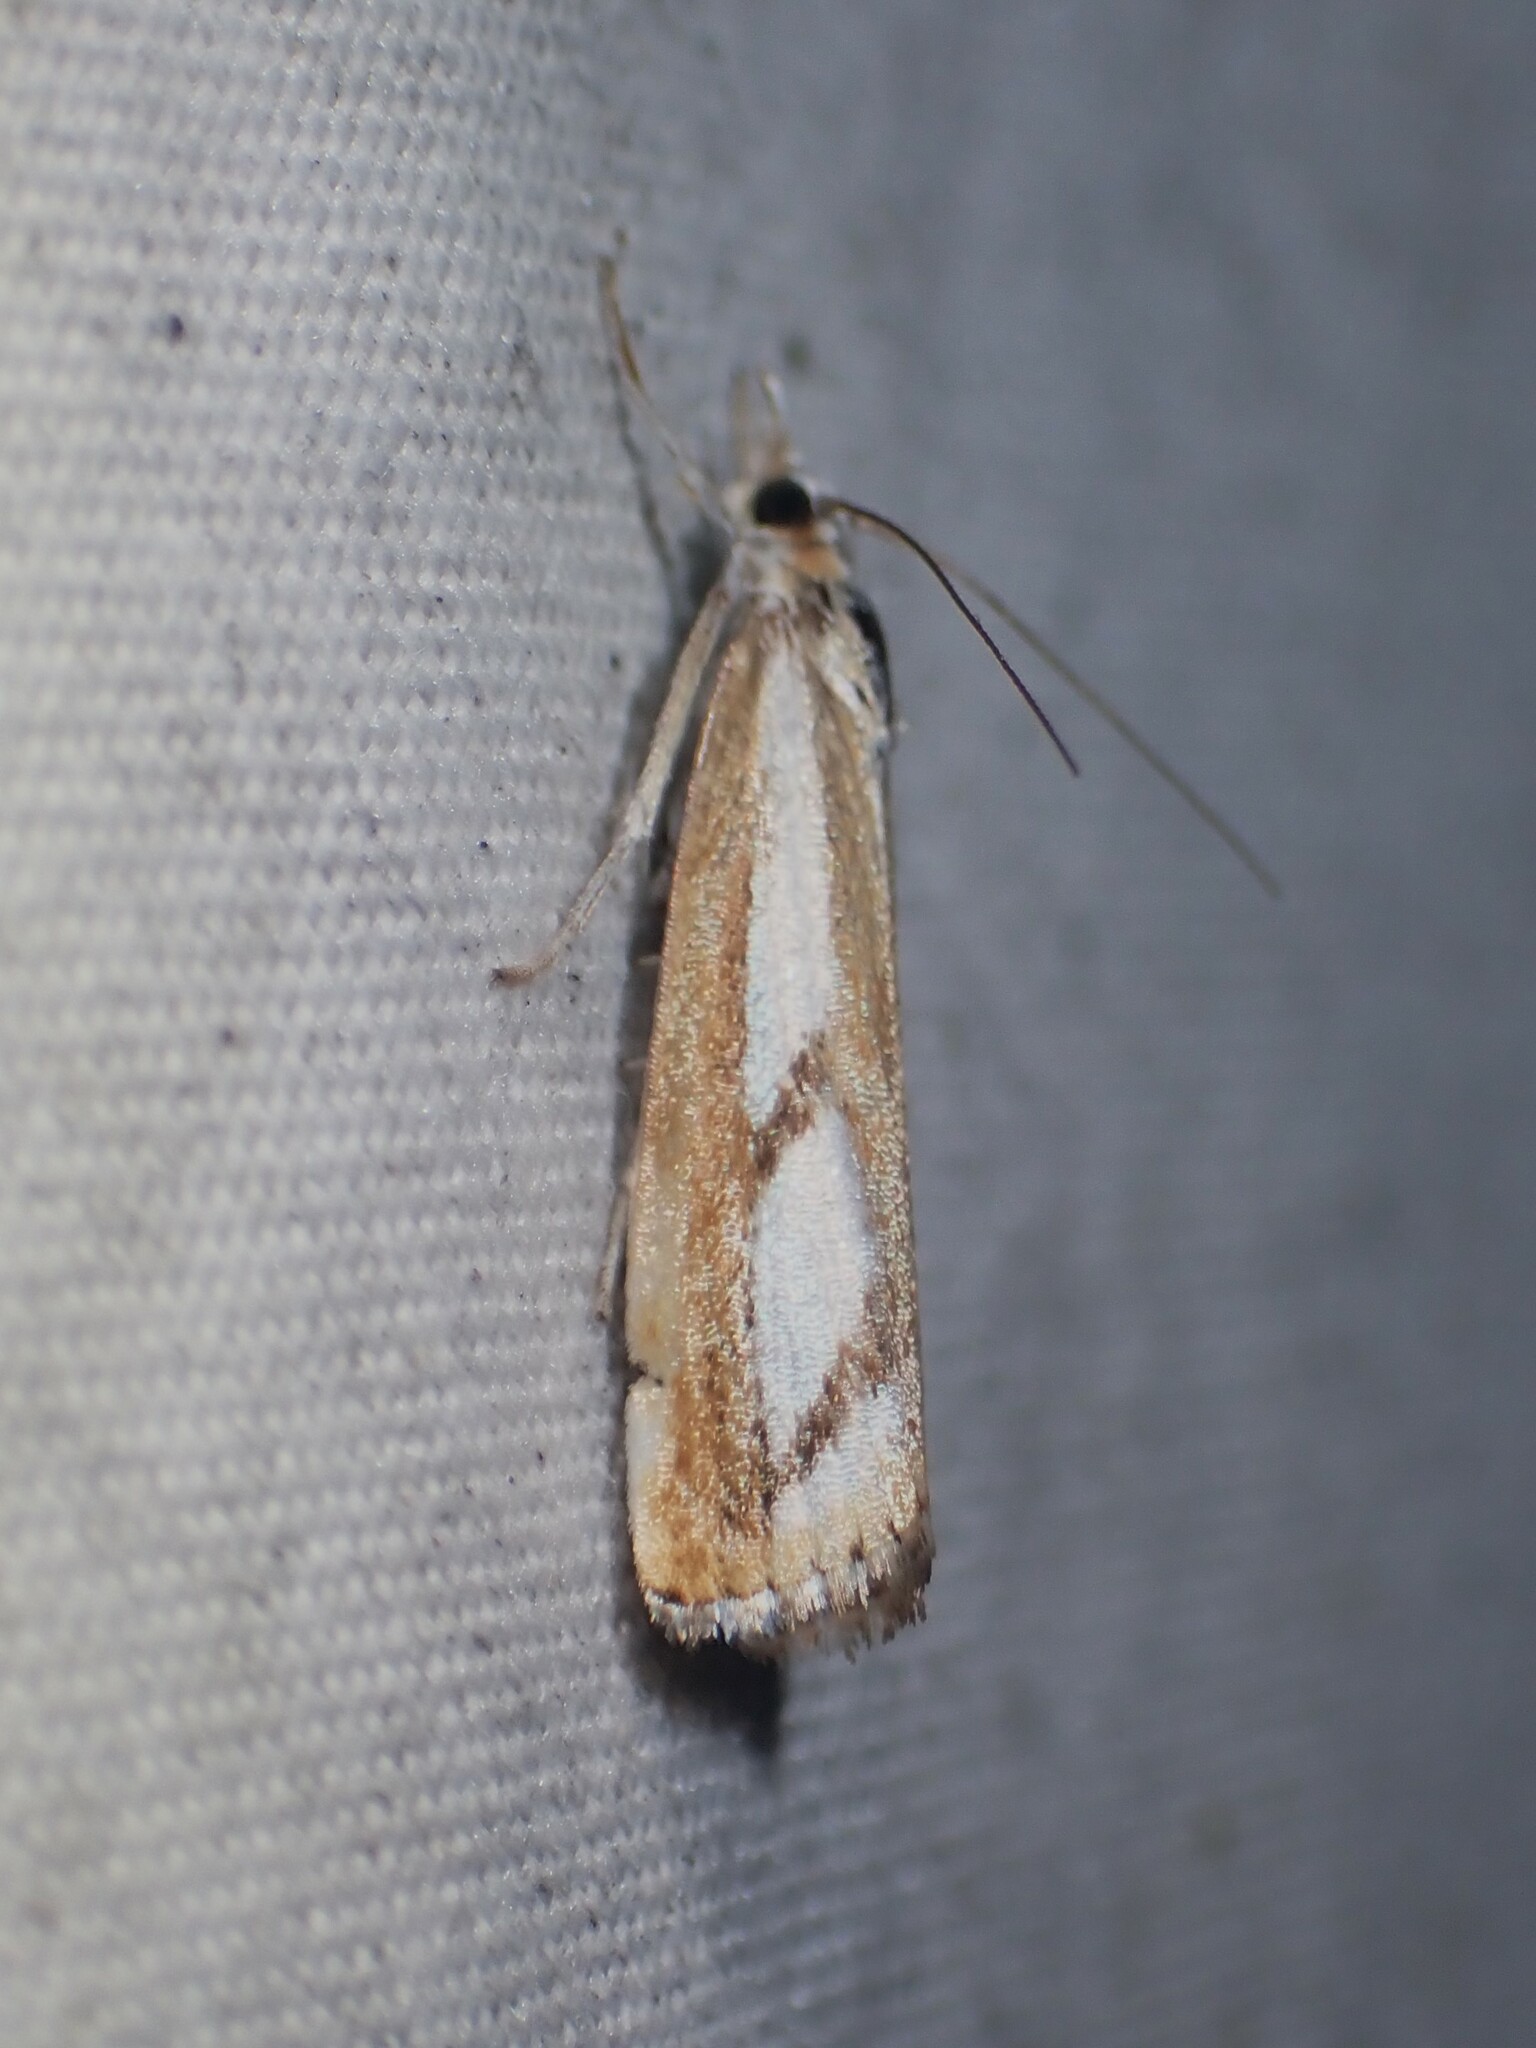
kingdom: Animalia
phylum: Arthropoda
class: Insecta
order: Lepidoptera
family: Crambidae
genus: Catoptria
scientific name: Catoptria latiradiellus
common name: Two-banded catoptria moth
